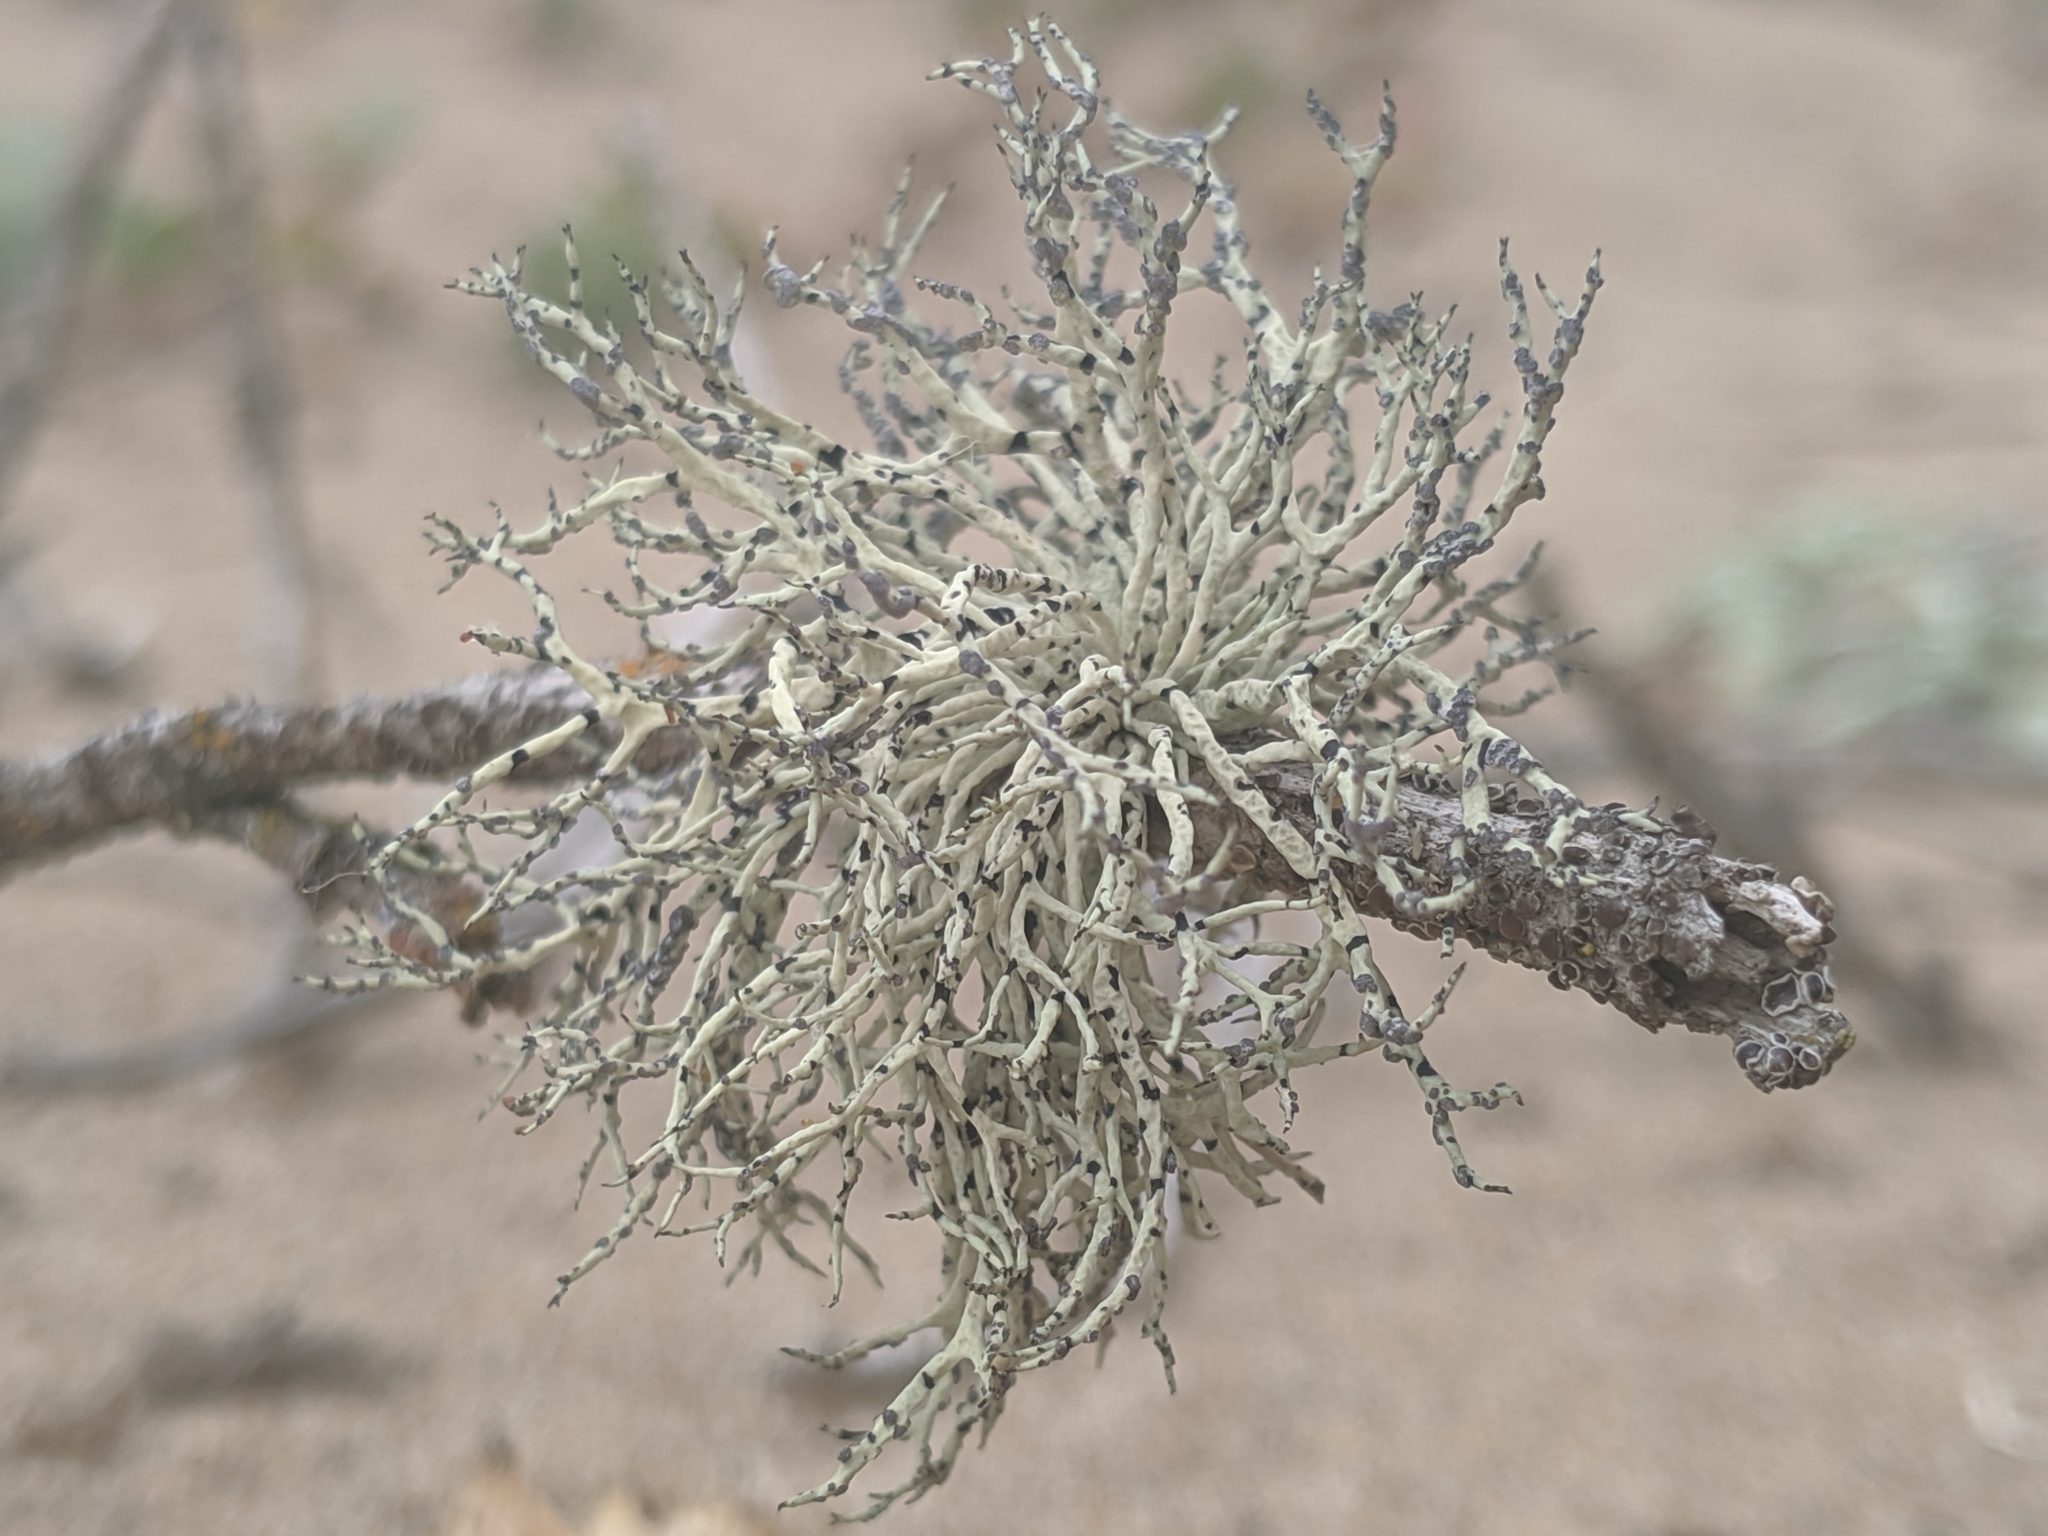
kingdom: Fungi
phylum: Ascomycota
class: Lecanoromycetes
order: Lecanorales
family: Ramalinaceae
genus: Niebla
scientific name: Niebla cephalota
